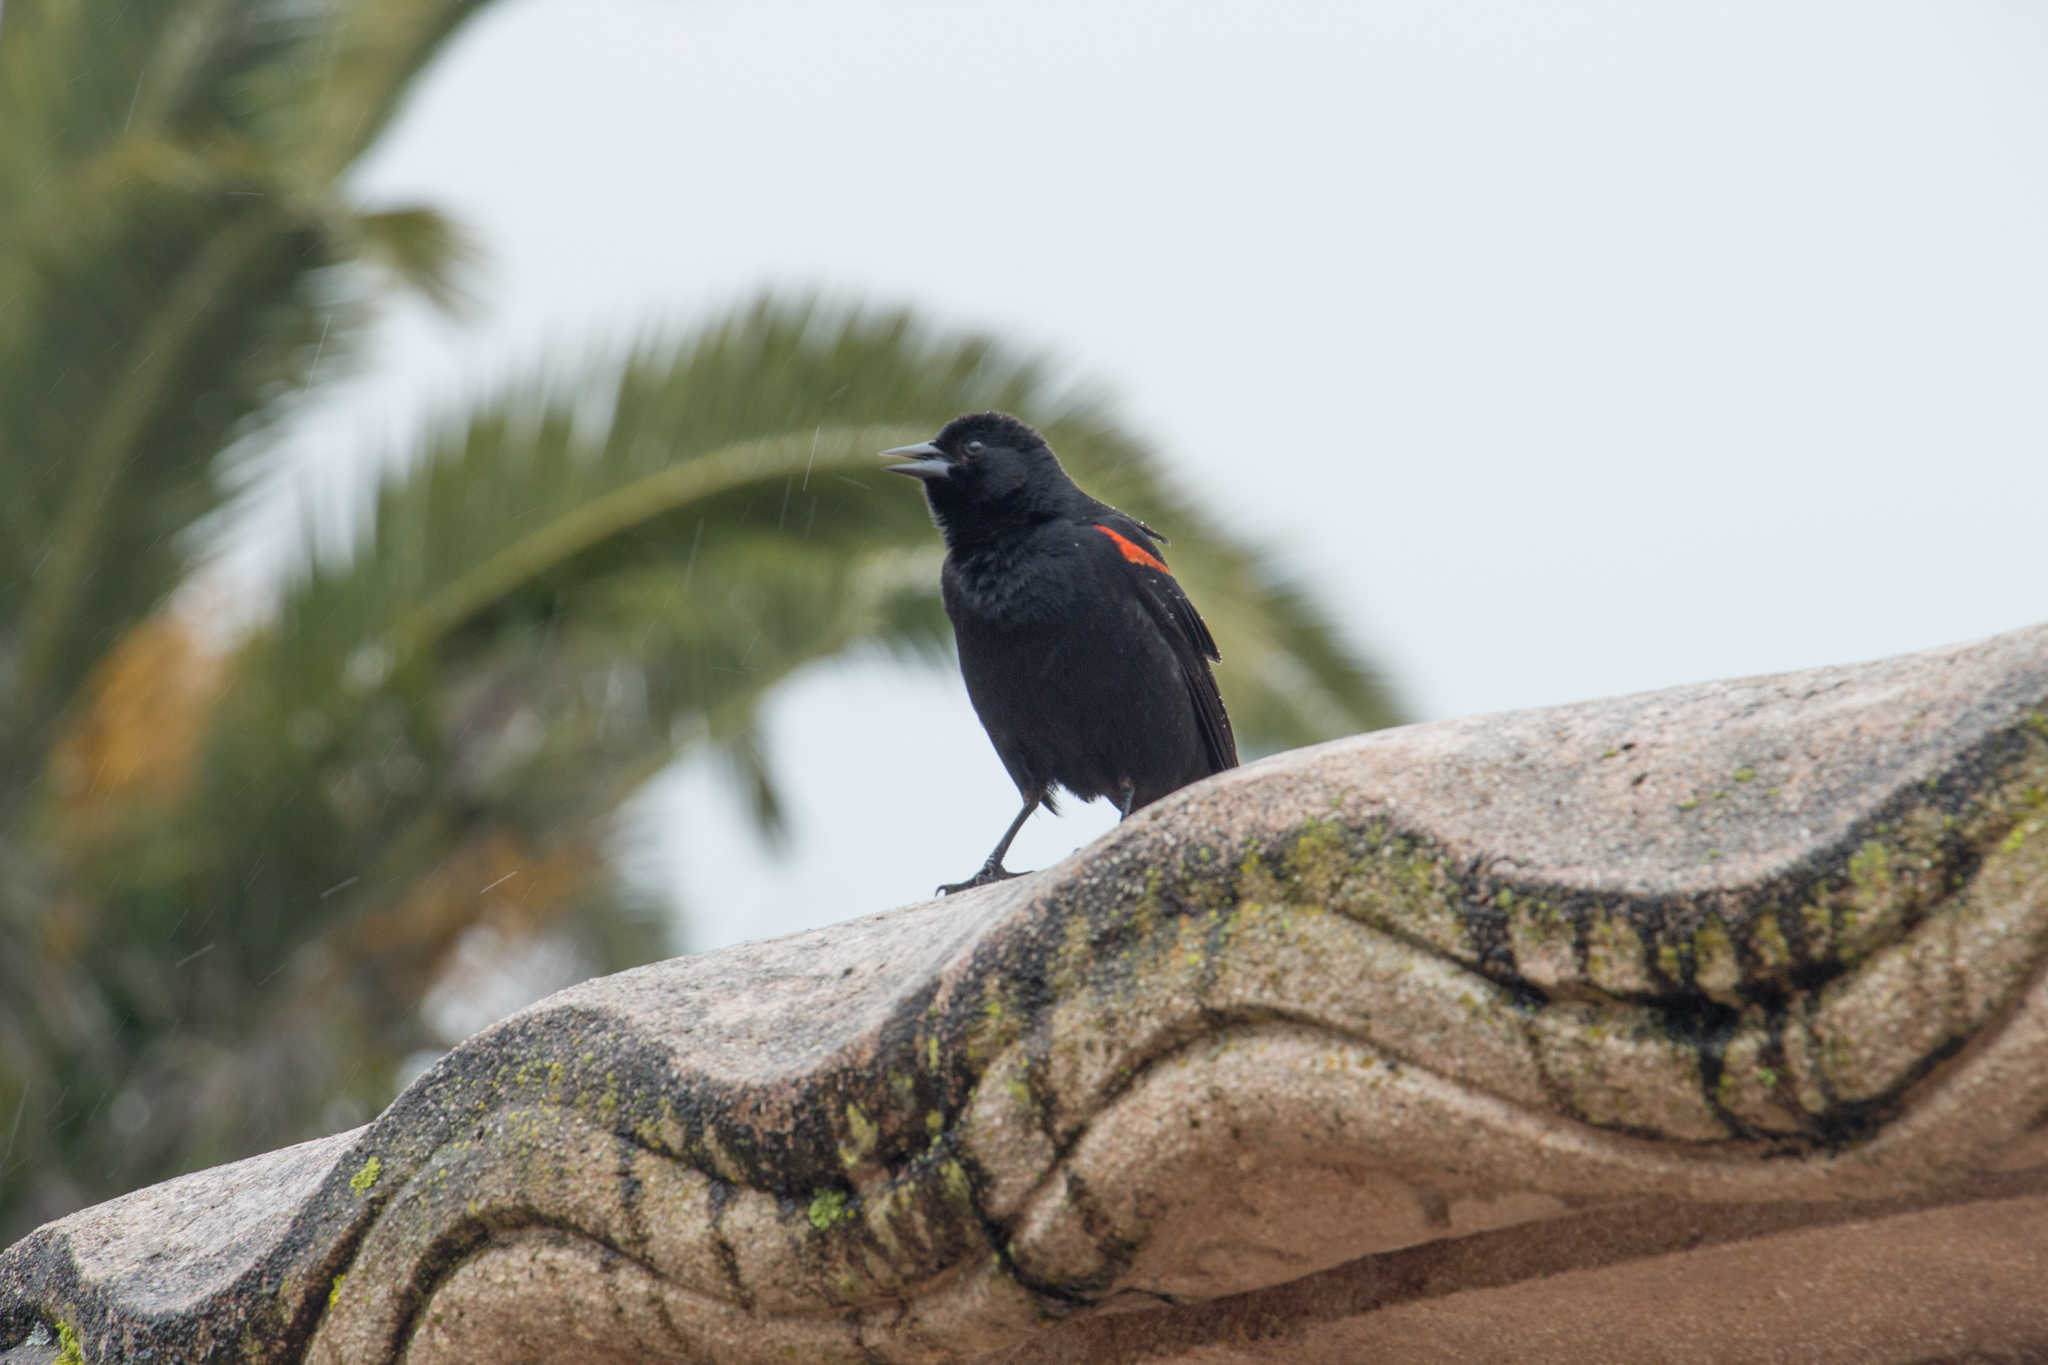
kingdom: Animalia
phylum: Chordata
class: Aves
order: Passeriformes
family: Icteridae
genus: Agelaius
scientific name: Agelaius phoeniceus
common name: Red-winged blackbird
